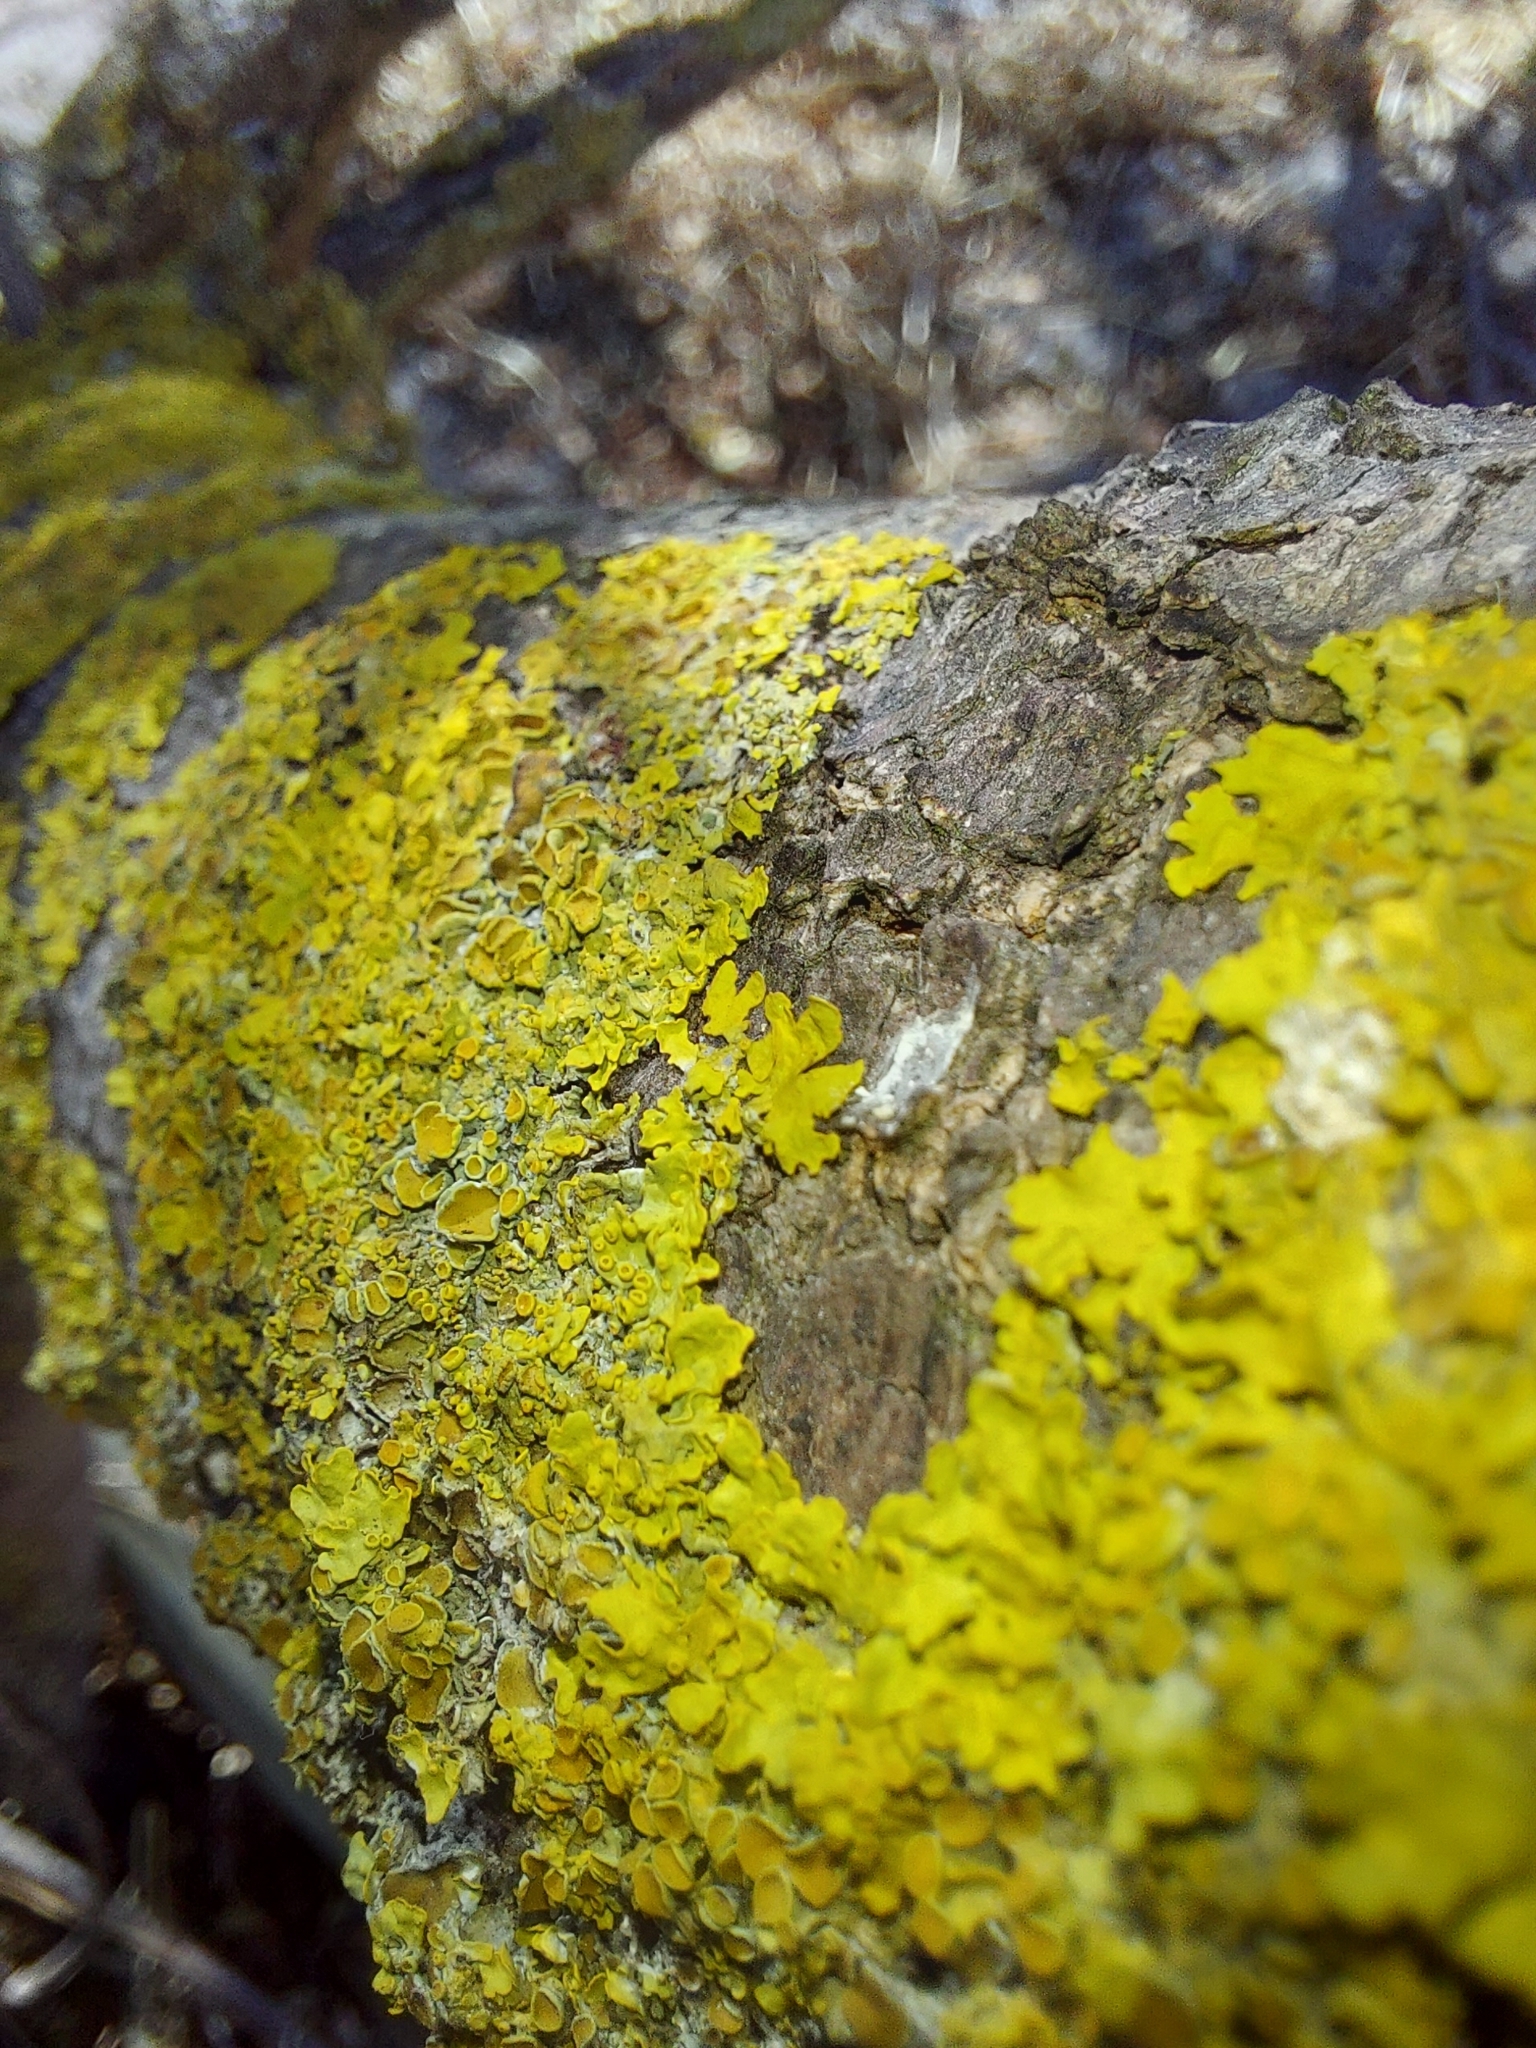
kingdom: Fungi
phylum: Ascomycota
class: Lecanoromycetes
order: Teloschistales
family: Teloschistaceae
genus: Xanthoria
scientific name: Xanthoria parietina
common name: Common orange lichen
